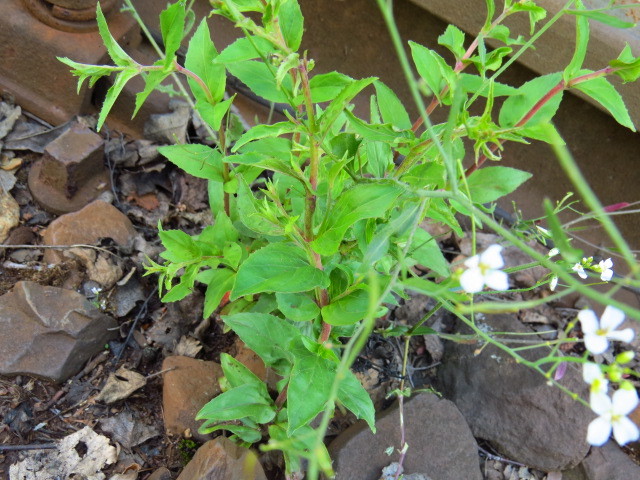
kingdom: Plantae
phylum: Tracheophyta
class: Magnoliopsida
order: Brassicales
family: Brassicaceae
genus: Arabidopsis
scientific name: Arabidopsis arenosa
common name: Sand rock-cress
